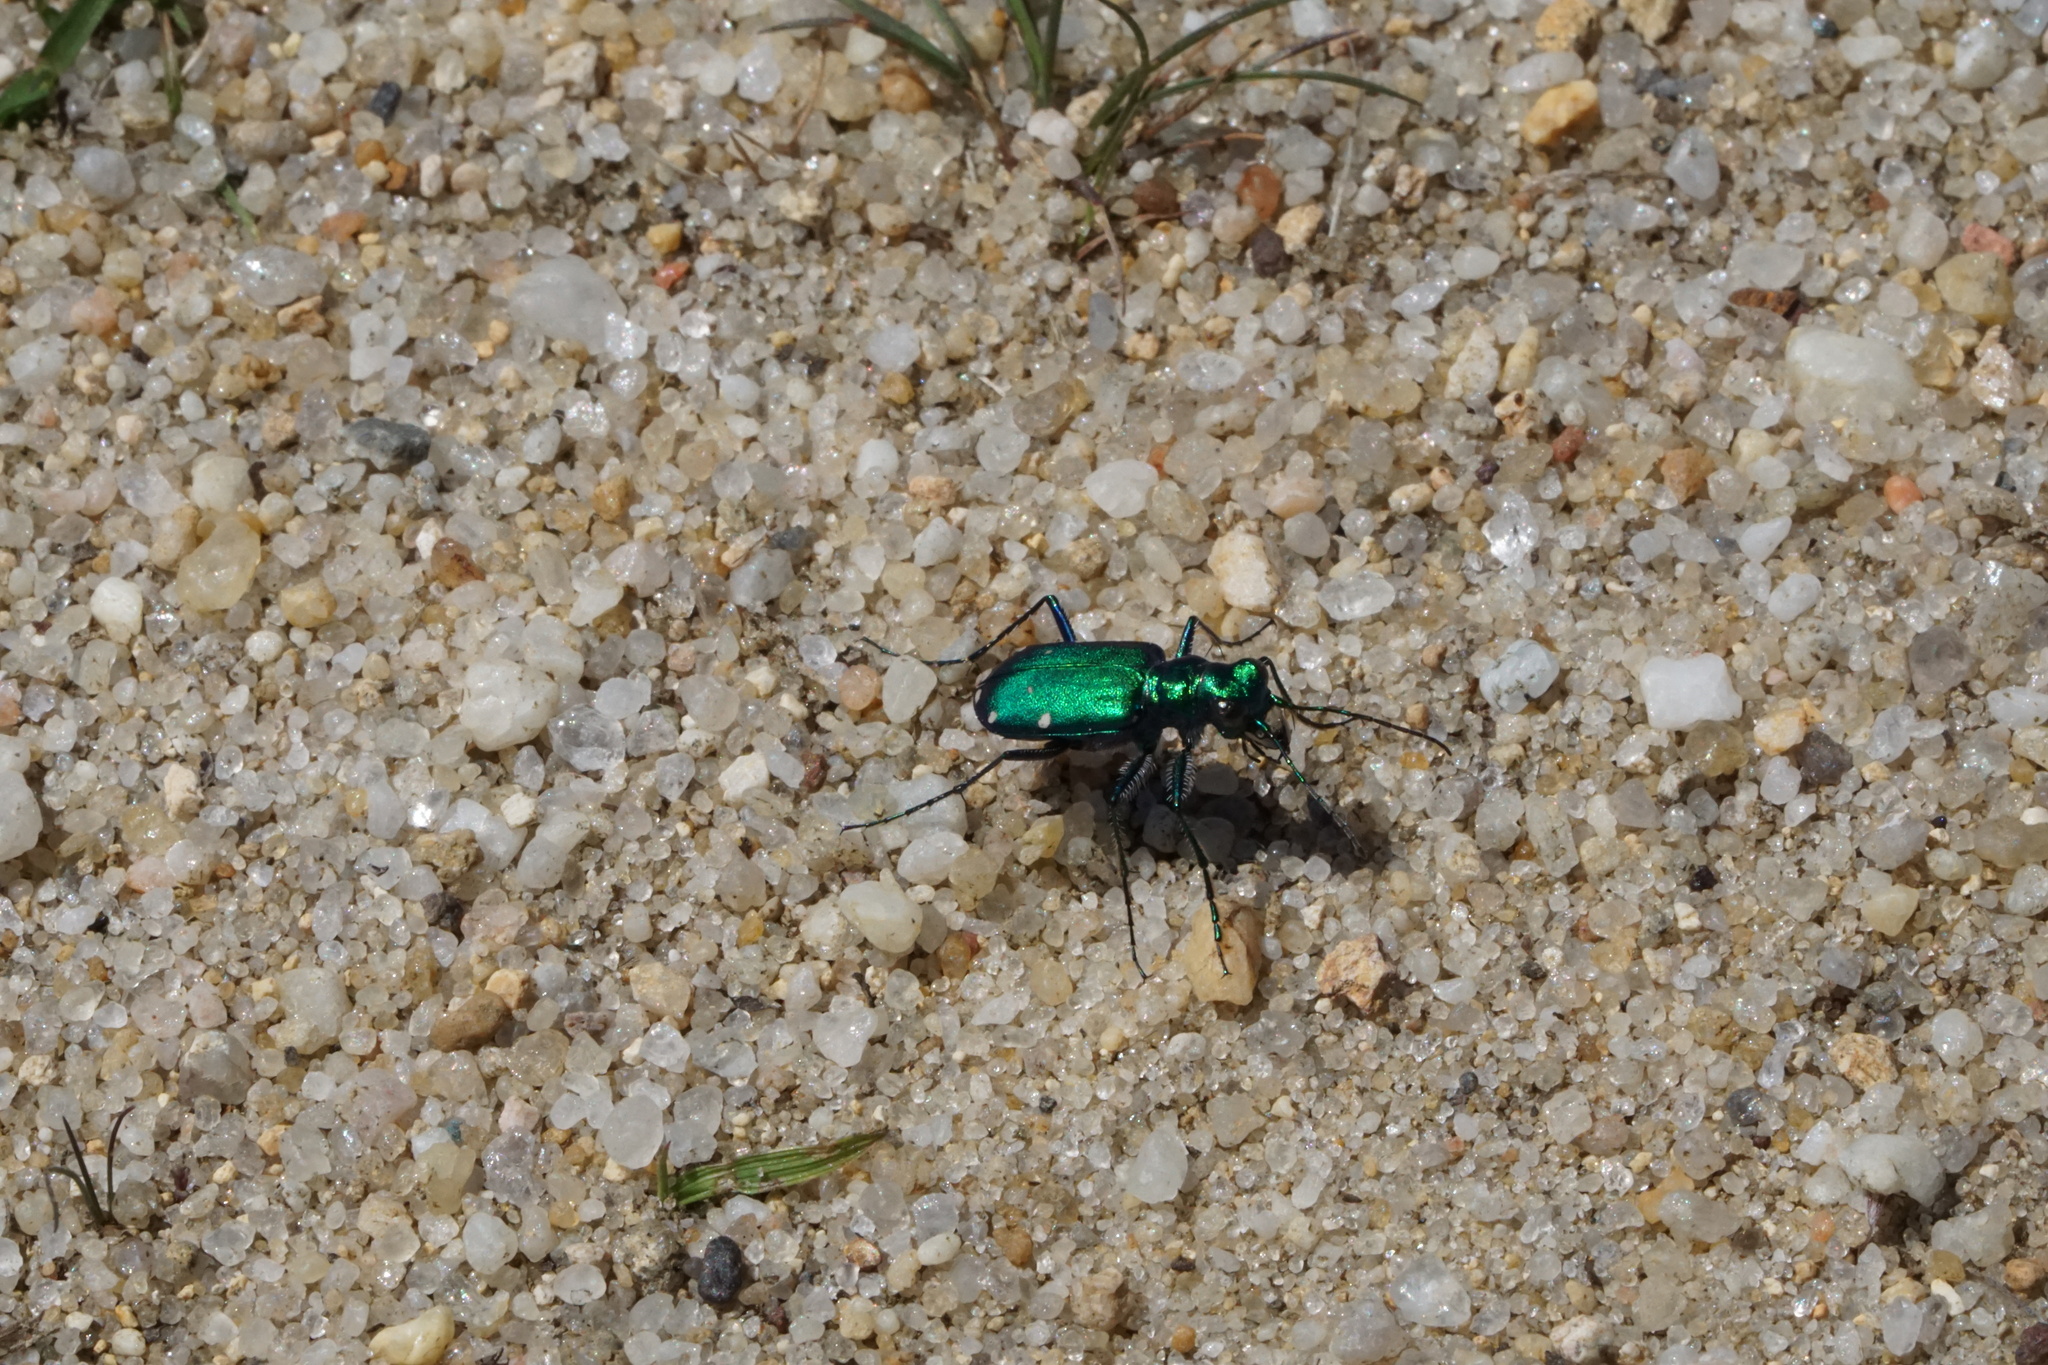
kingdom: Animalia
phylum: Arthropoda
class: Insecta
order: Coleoptera
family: Carabidae
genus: Cicindela
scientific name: Cicindela sexguttata
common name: Six-spotted tiger beetle
